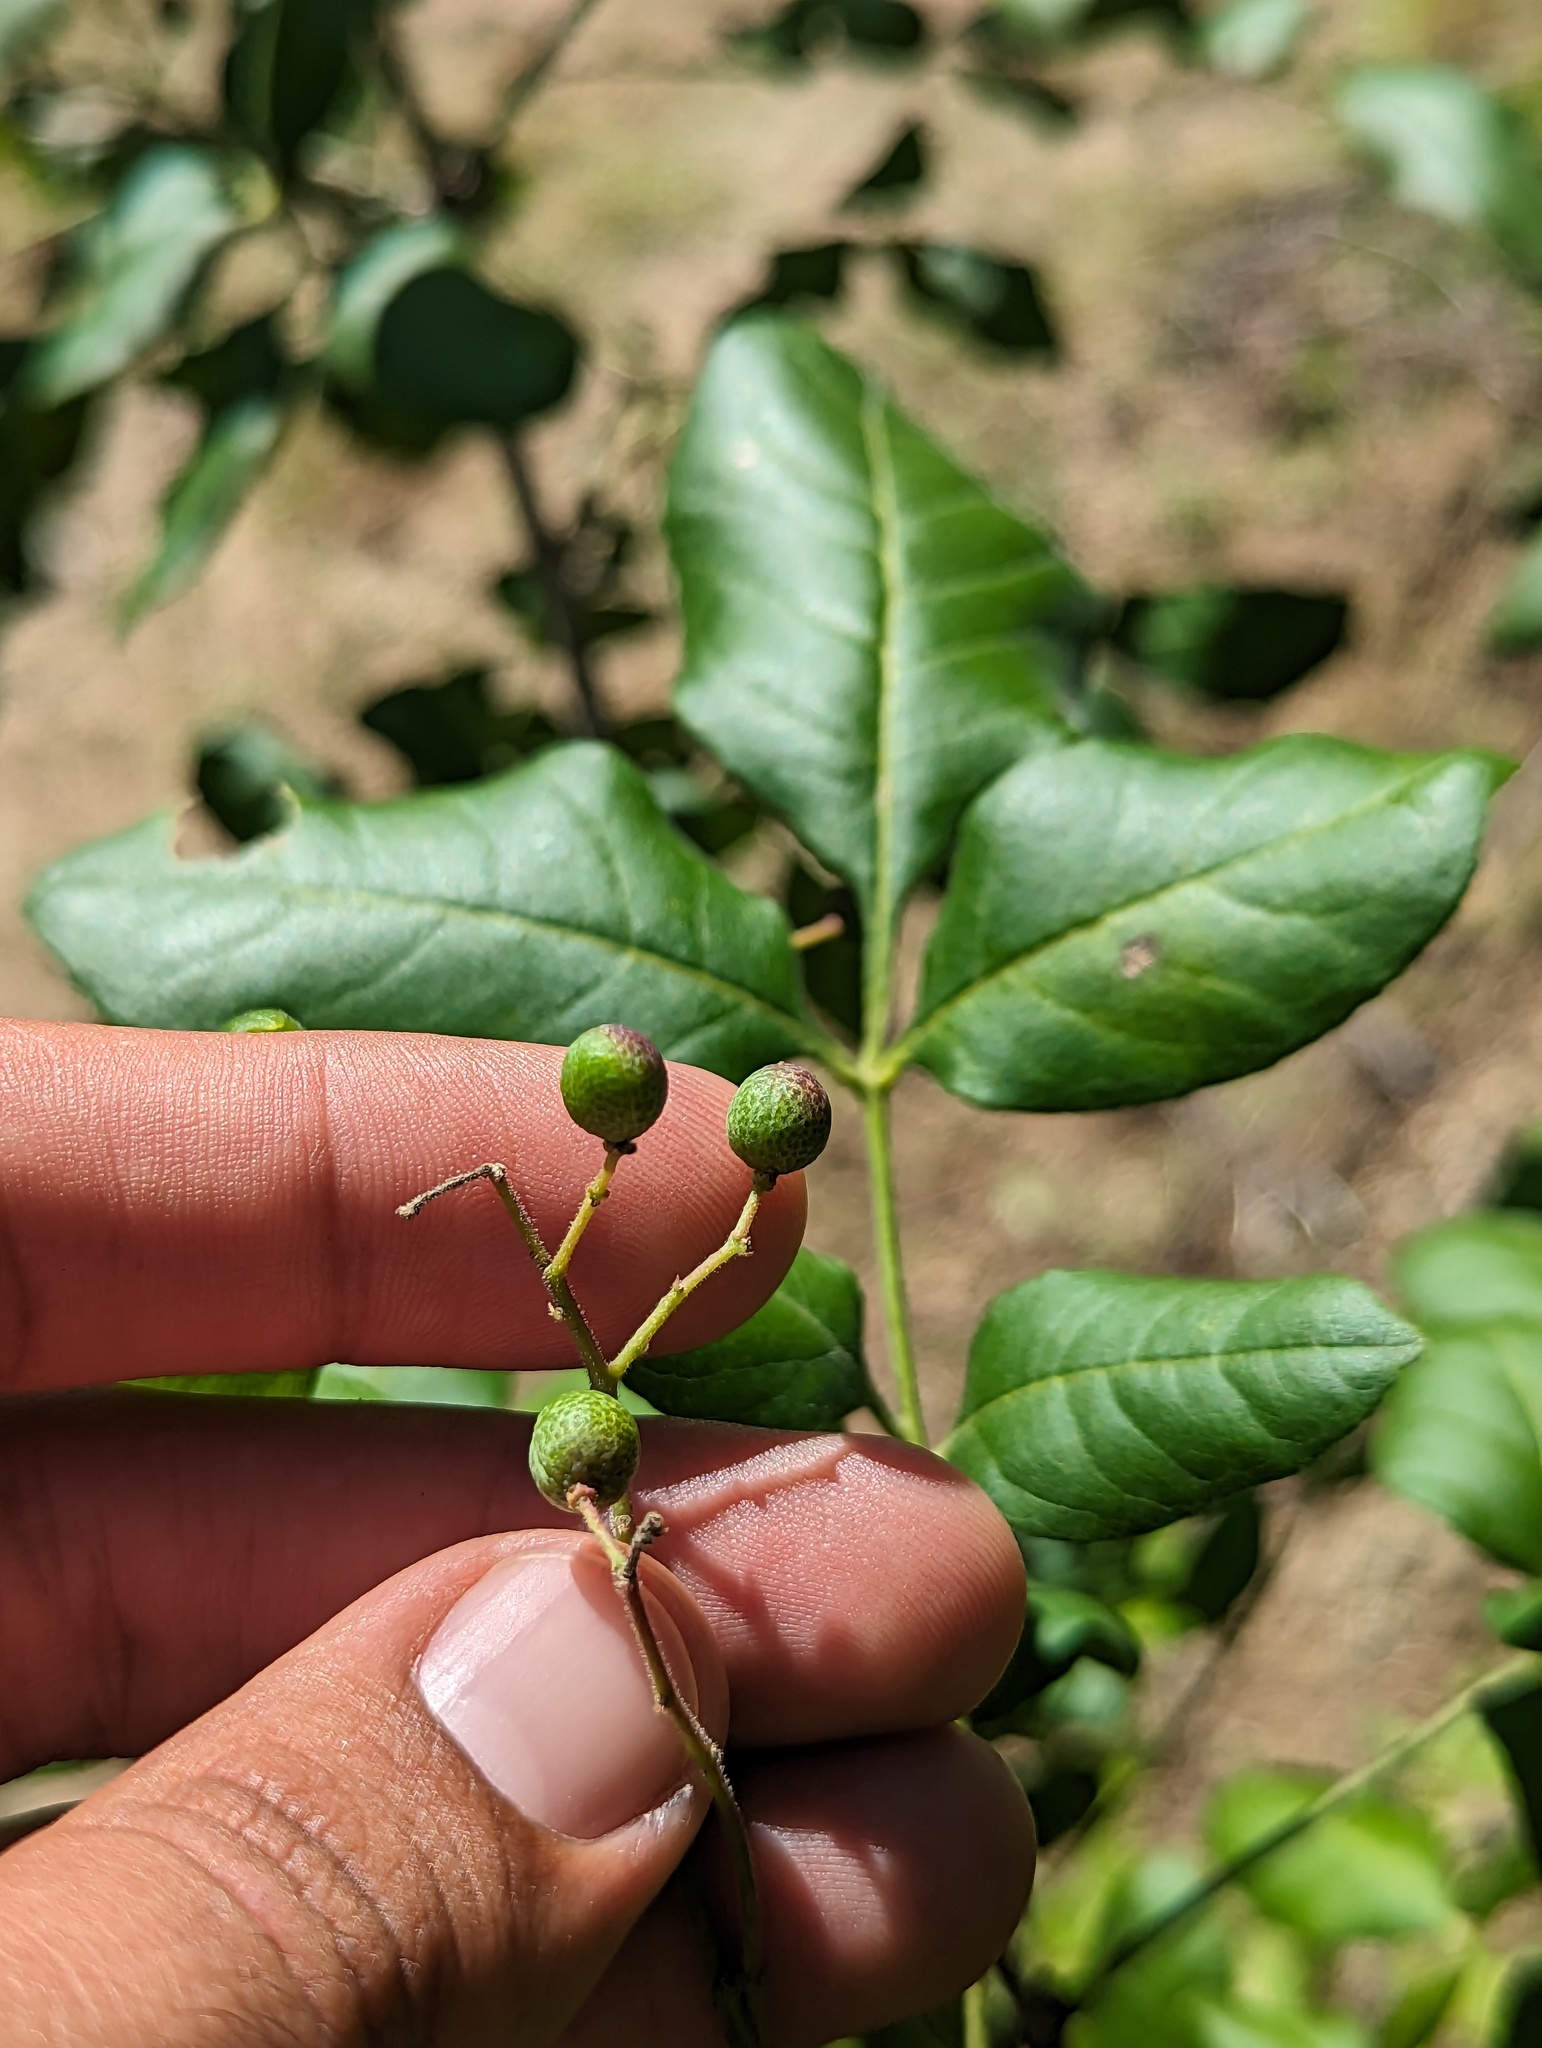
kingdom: Plantae
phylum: Tracheophyta
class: Magnoliopsida
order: Sapindales
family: Rutaceae
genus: Zanthoxylum
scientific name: Zanthoxylum arborescens
